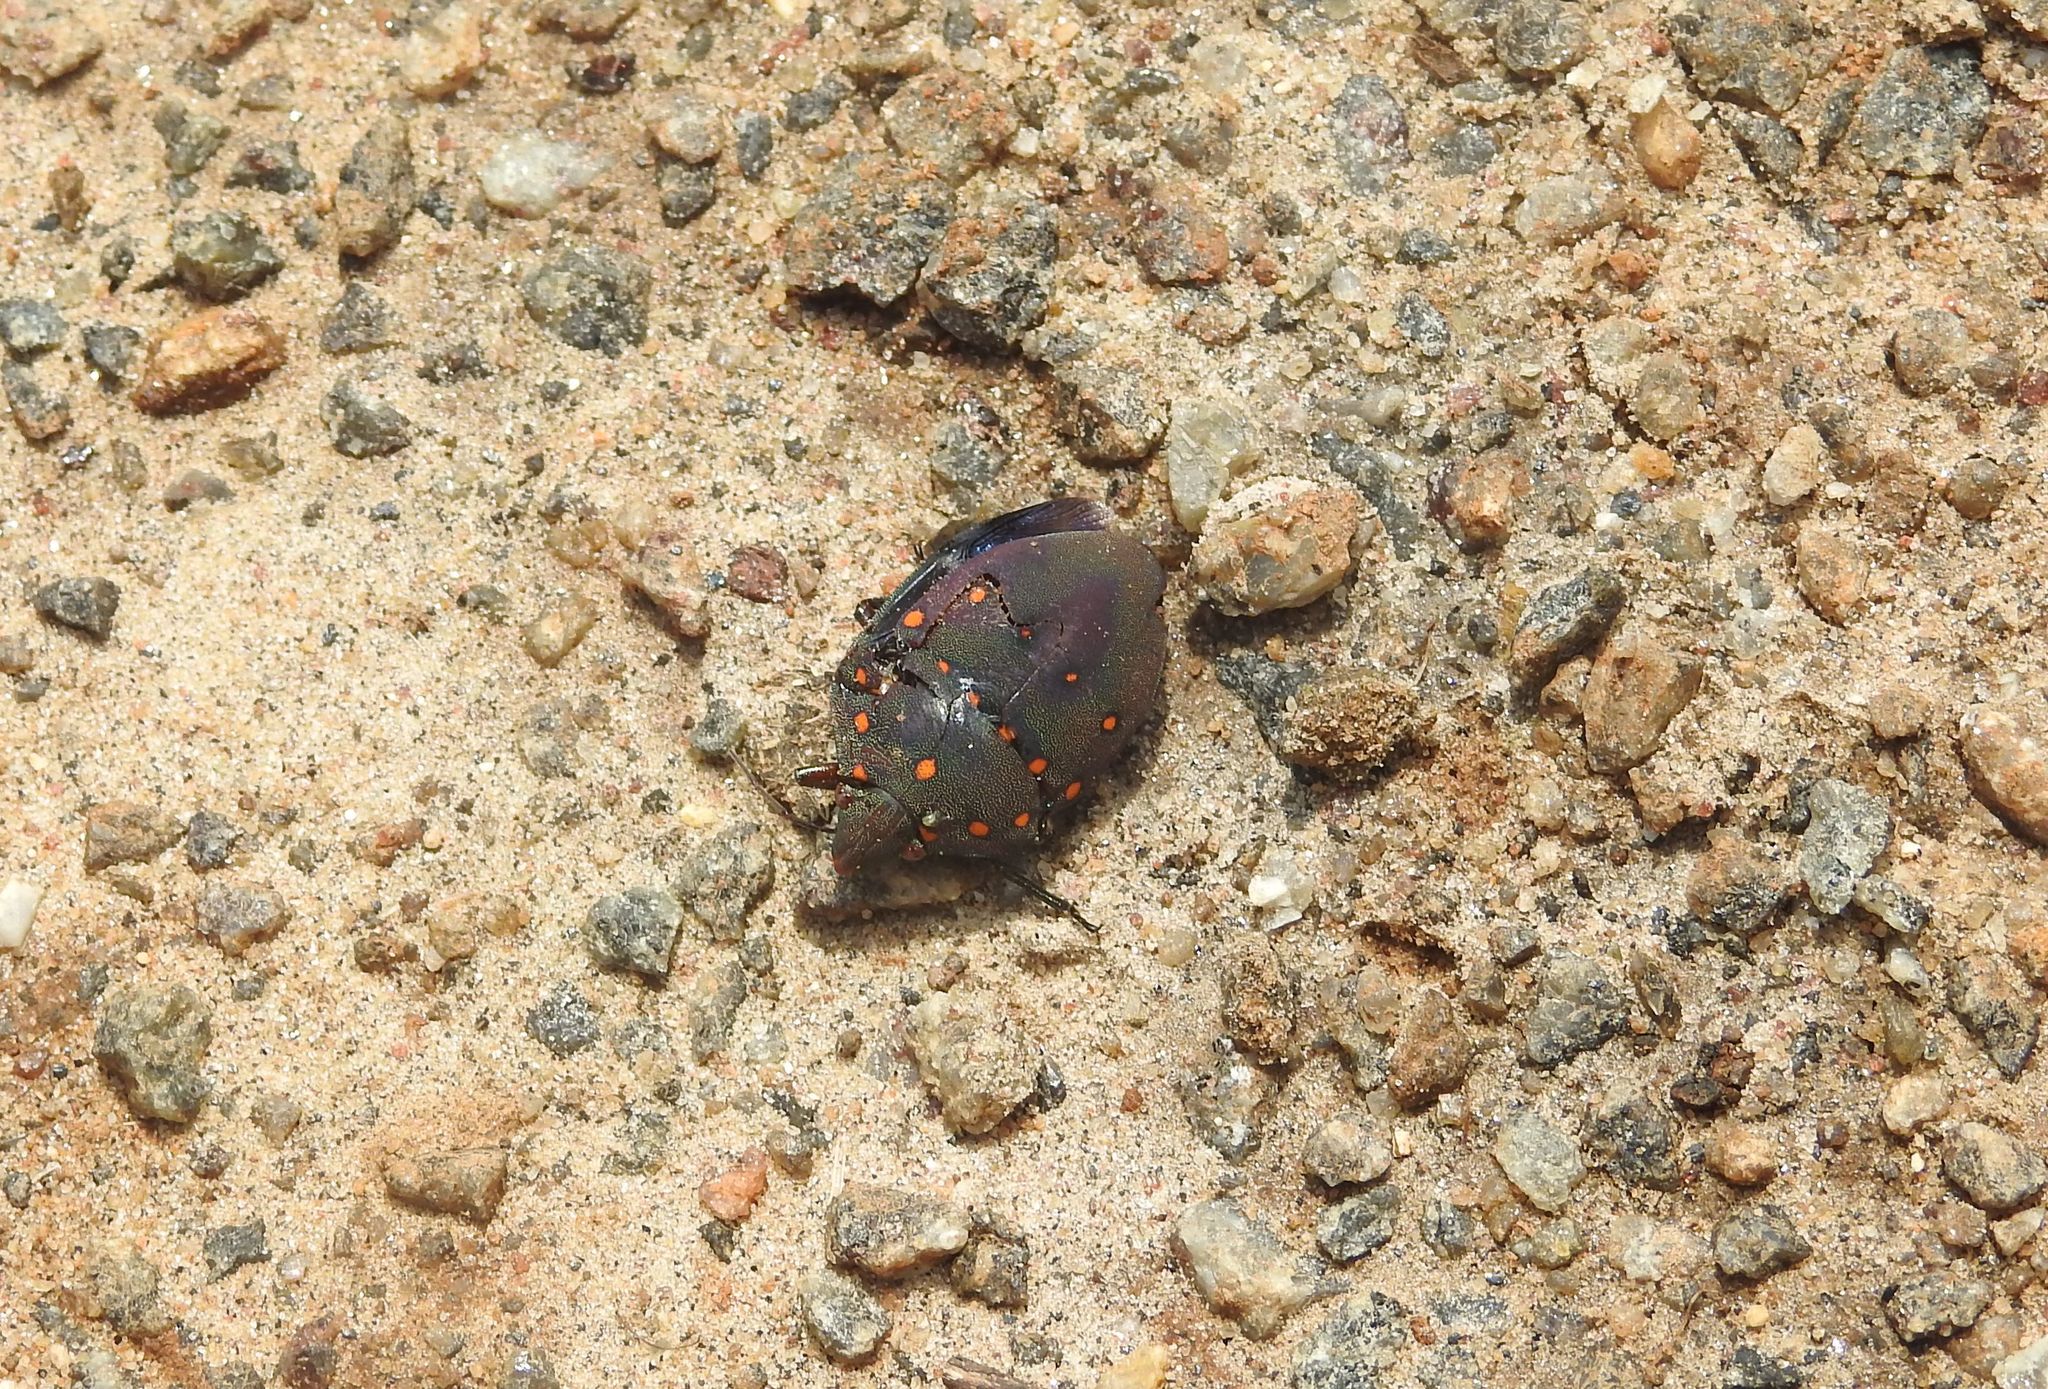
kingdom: Animalia
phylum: Arthropoda
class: Insecta
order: Hemiptera
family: Scutelleridae
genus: Solenosthedium
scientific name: Solenosthedium
